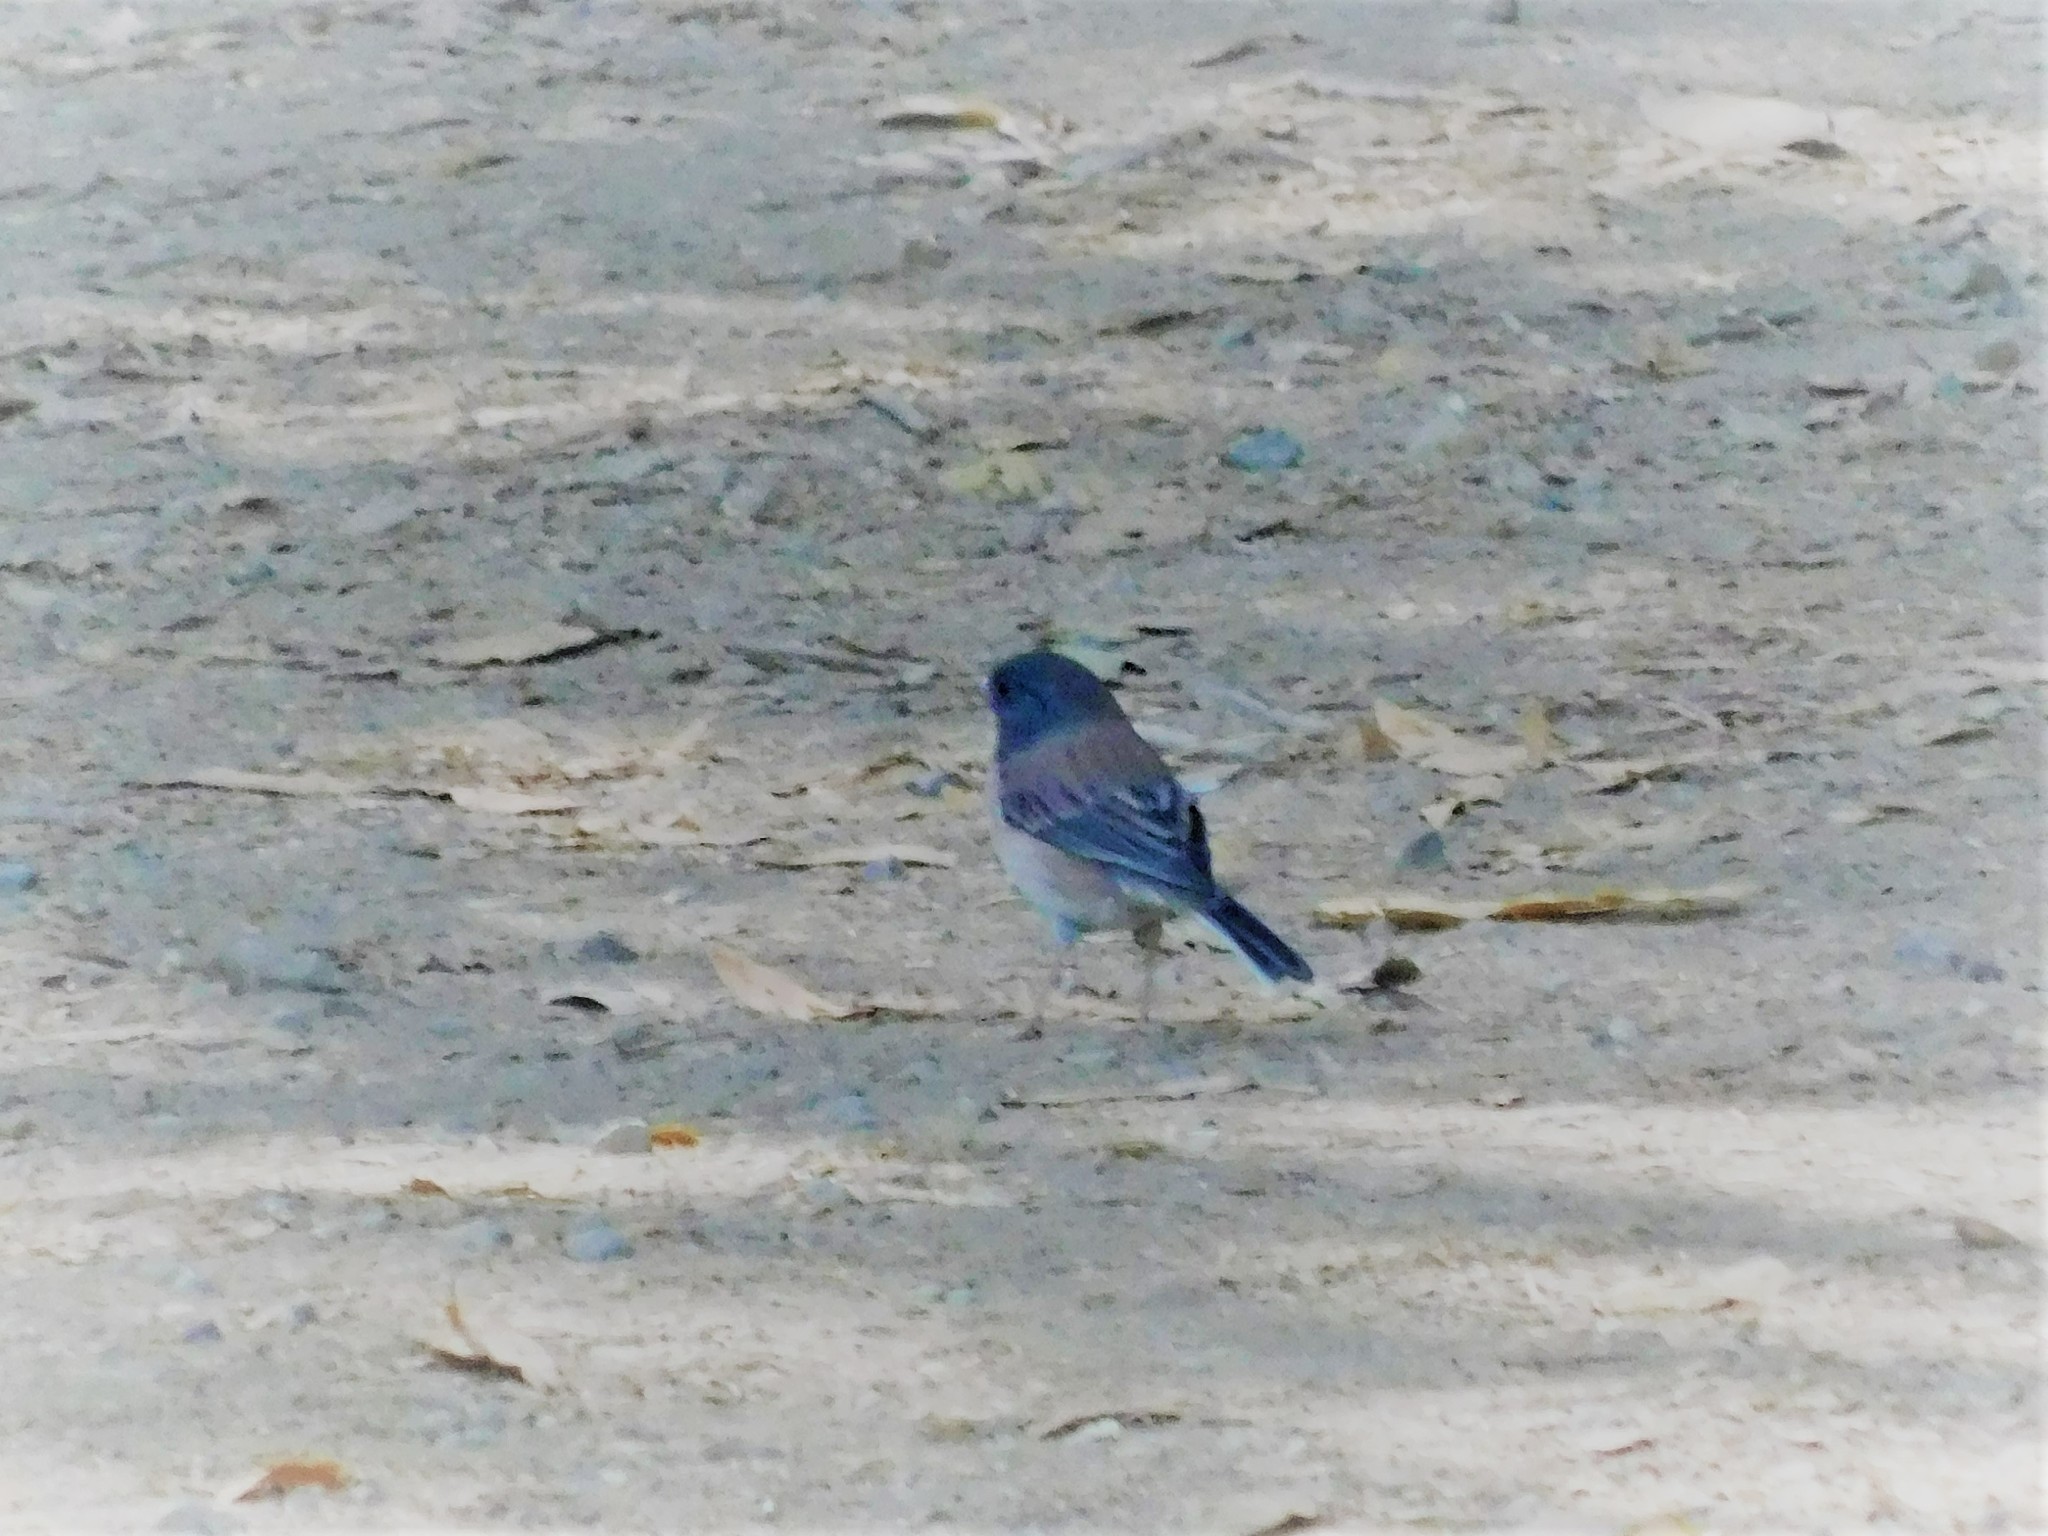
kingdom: Animalia
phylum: Chordata
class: Aves
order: Passeriformes
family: Passerellidae
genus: Junco
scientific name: Junco hyemalis
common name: Dark-eyed junco
